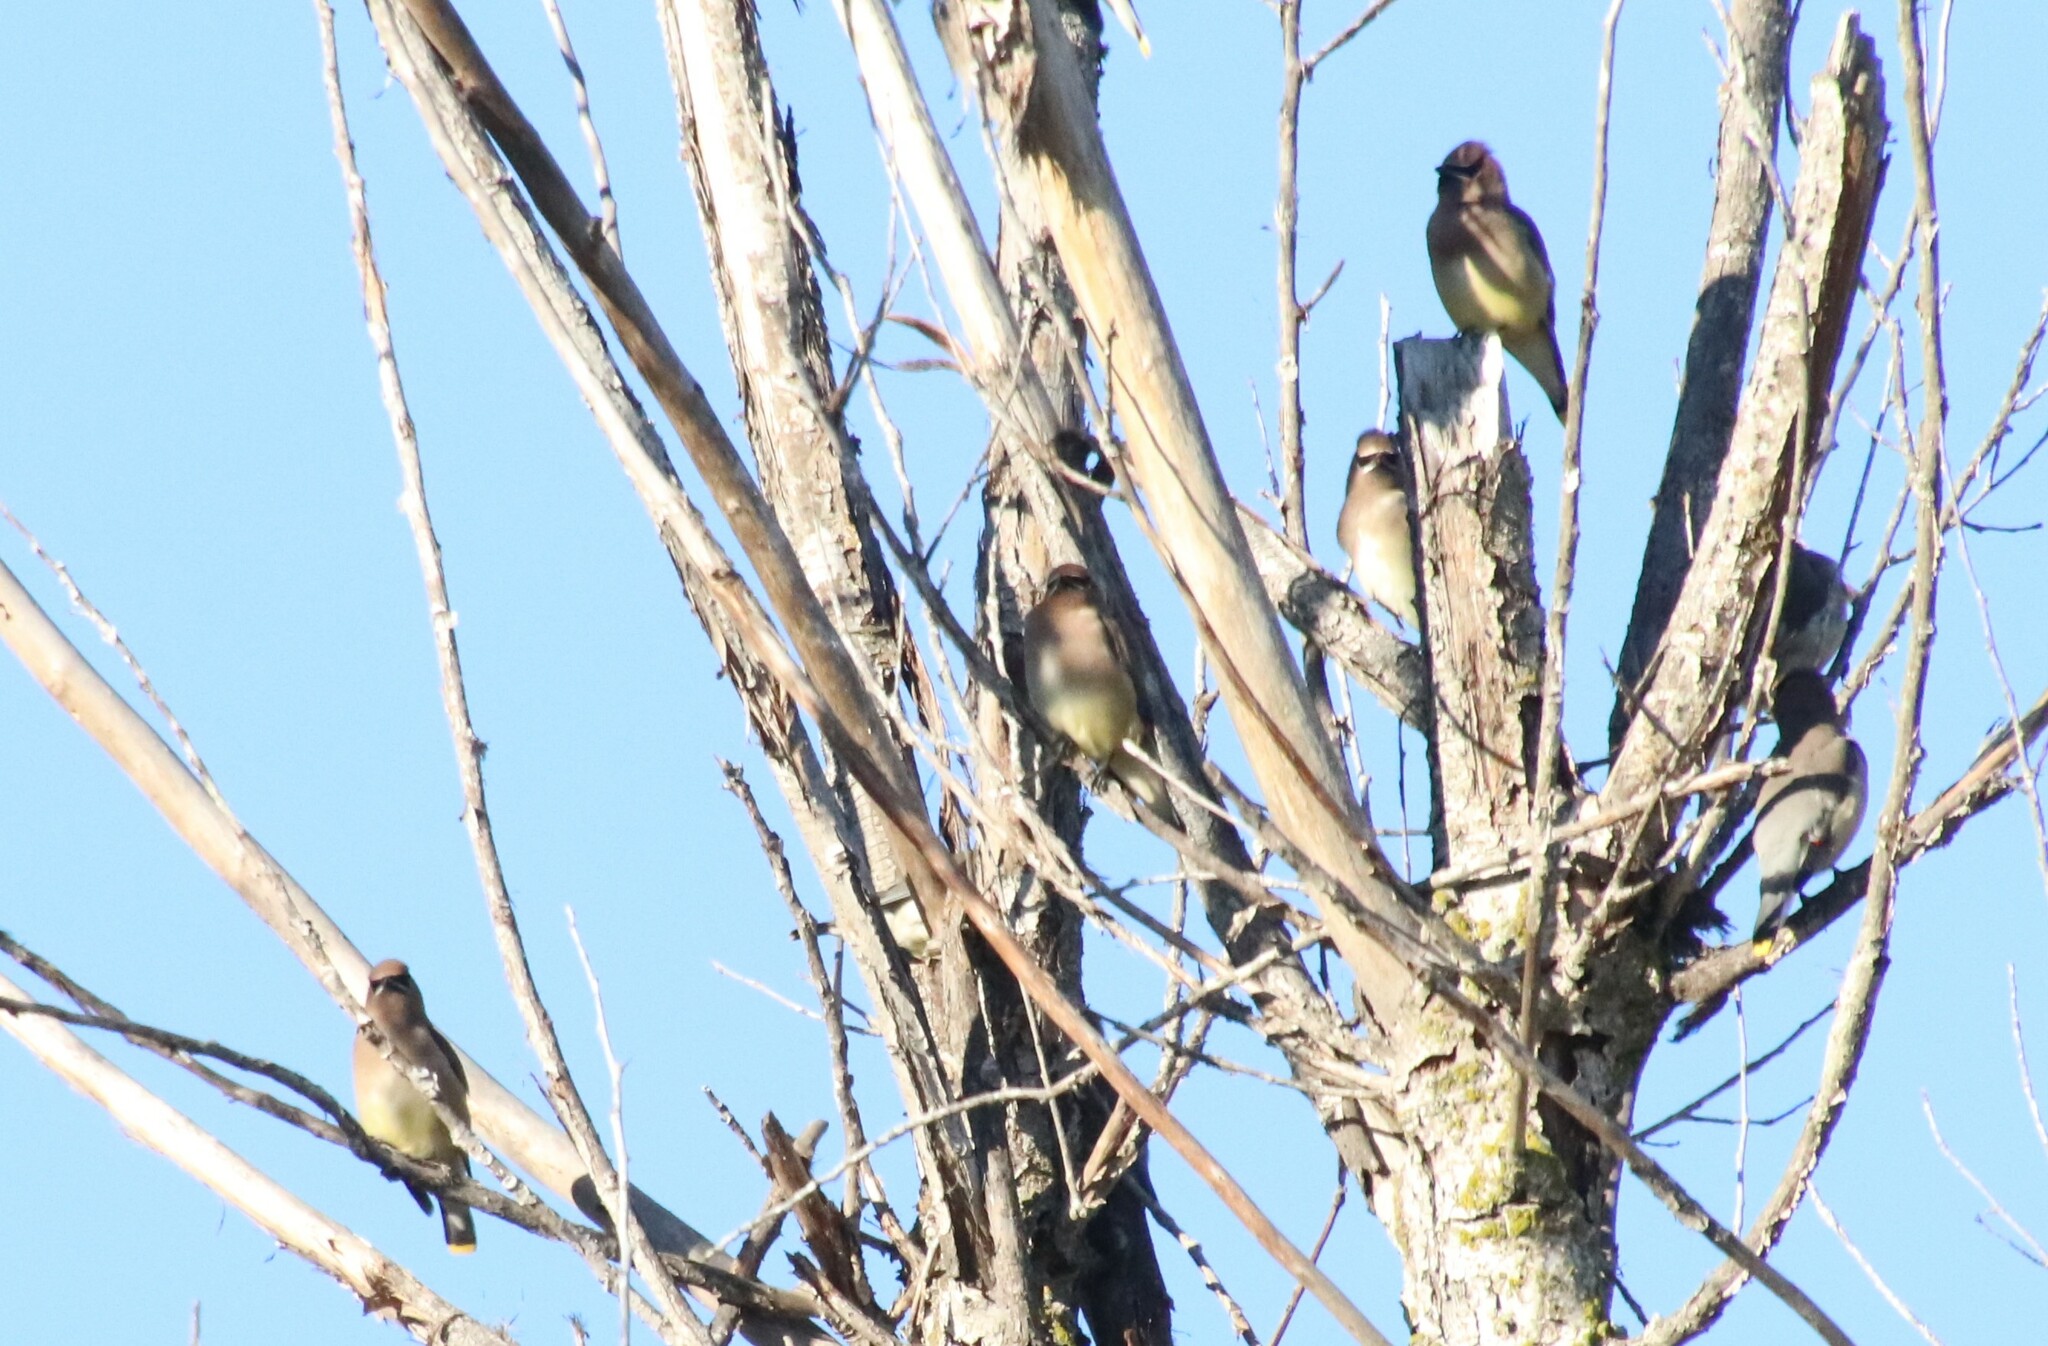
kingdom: Animalia
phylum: Chordata
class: Aves
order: Passeriformes
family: Bombycillidae
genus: Bombycilla
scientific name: Bombycilla cedrorum
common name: Cedar waxwing
